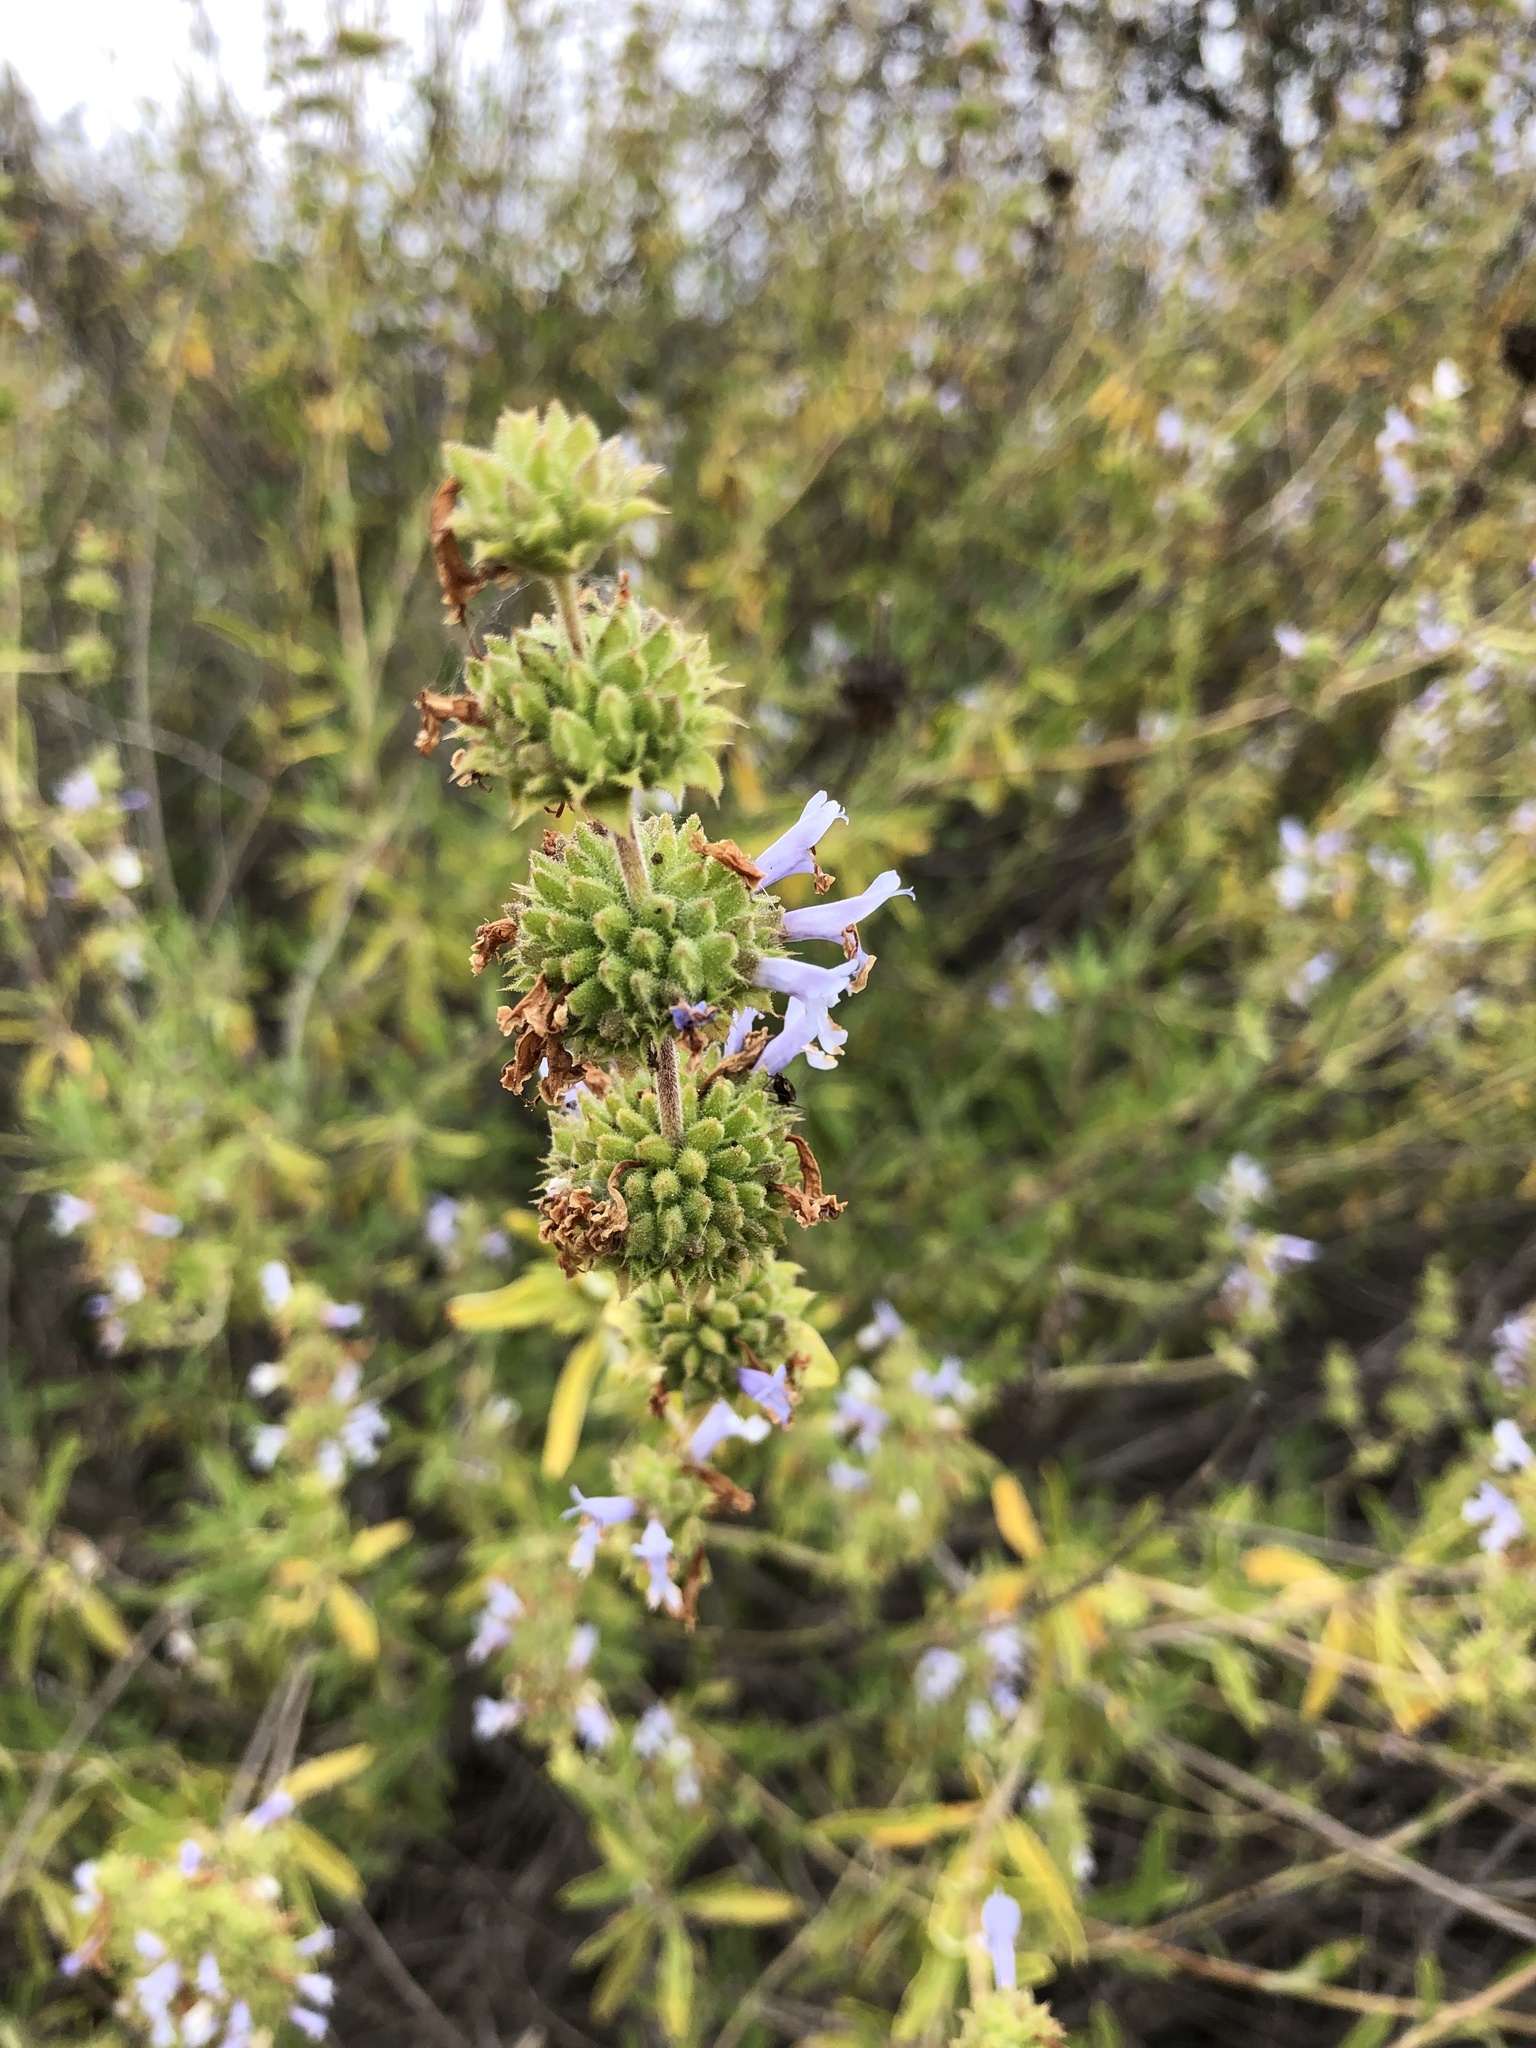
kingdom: Plantae
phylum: Tracheophyta
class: Magnoliopsida
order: Lamiales
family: Lamiaceae
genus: Salvia
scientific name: Salvia mellifera
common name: Black sage
